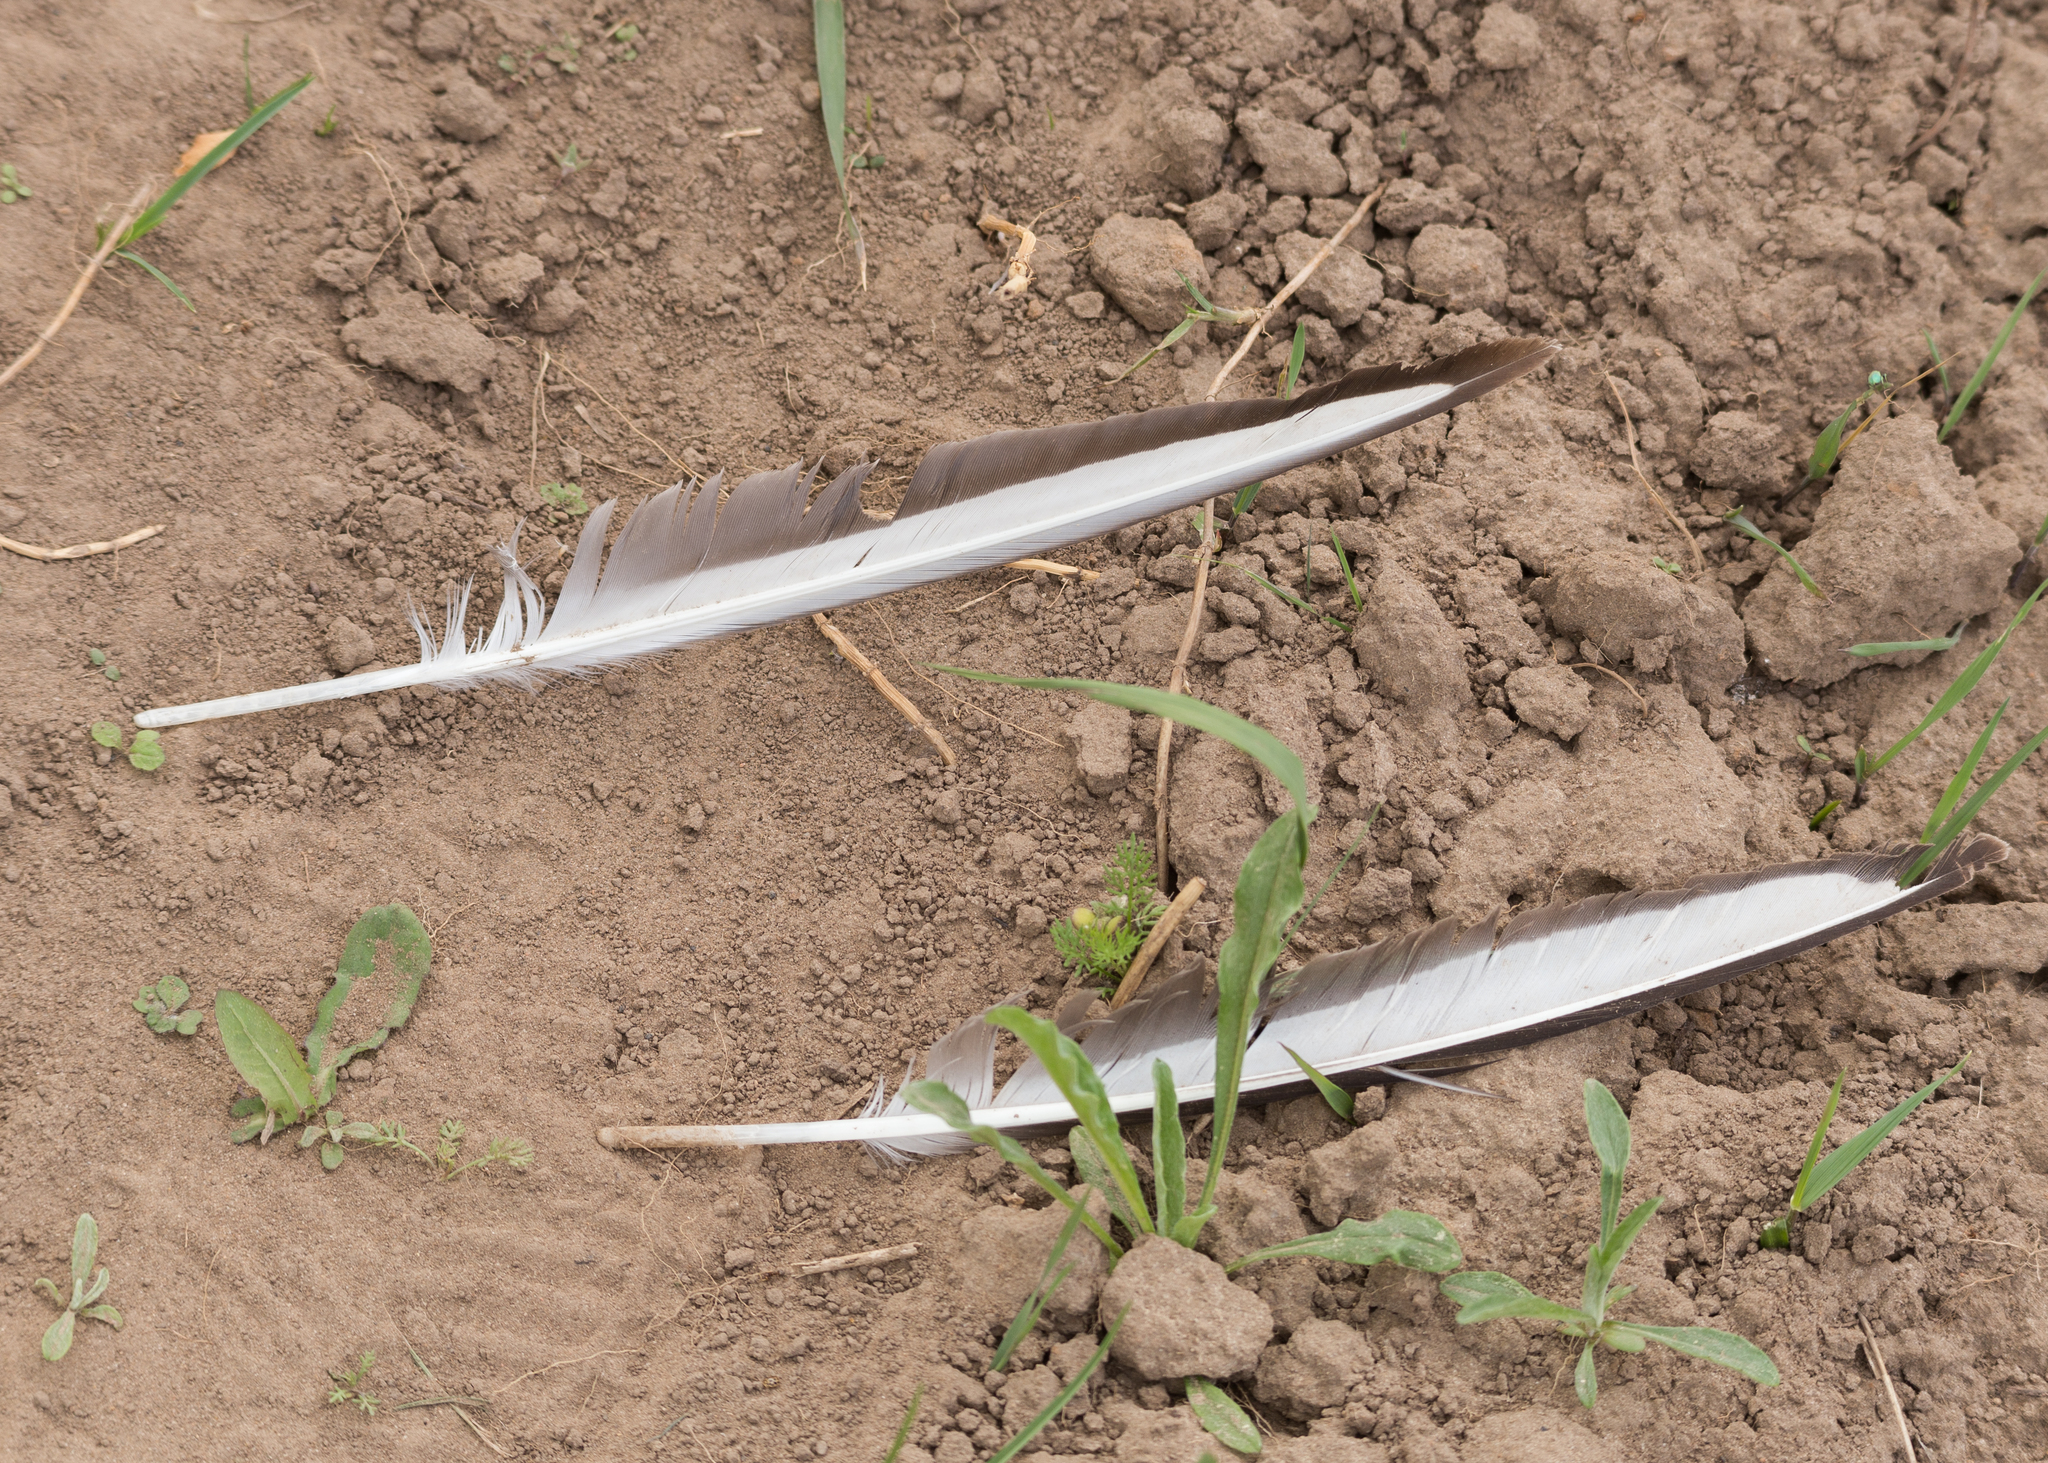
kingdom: Animalia
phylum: Chordata
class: Aves
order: Charadriiformes
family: Laridae
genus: Chroicocephalus
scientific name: Chroicocephalus ridibundus
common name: Black-headed gull
